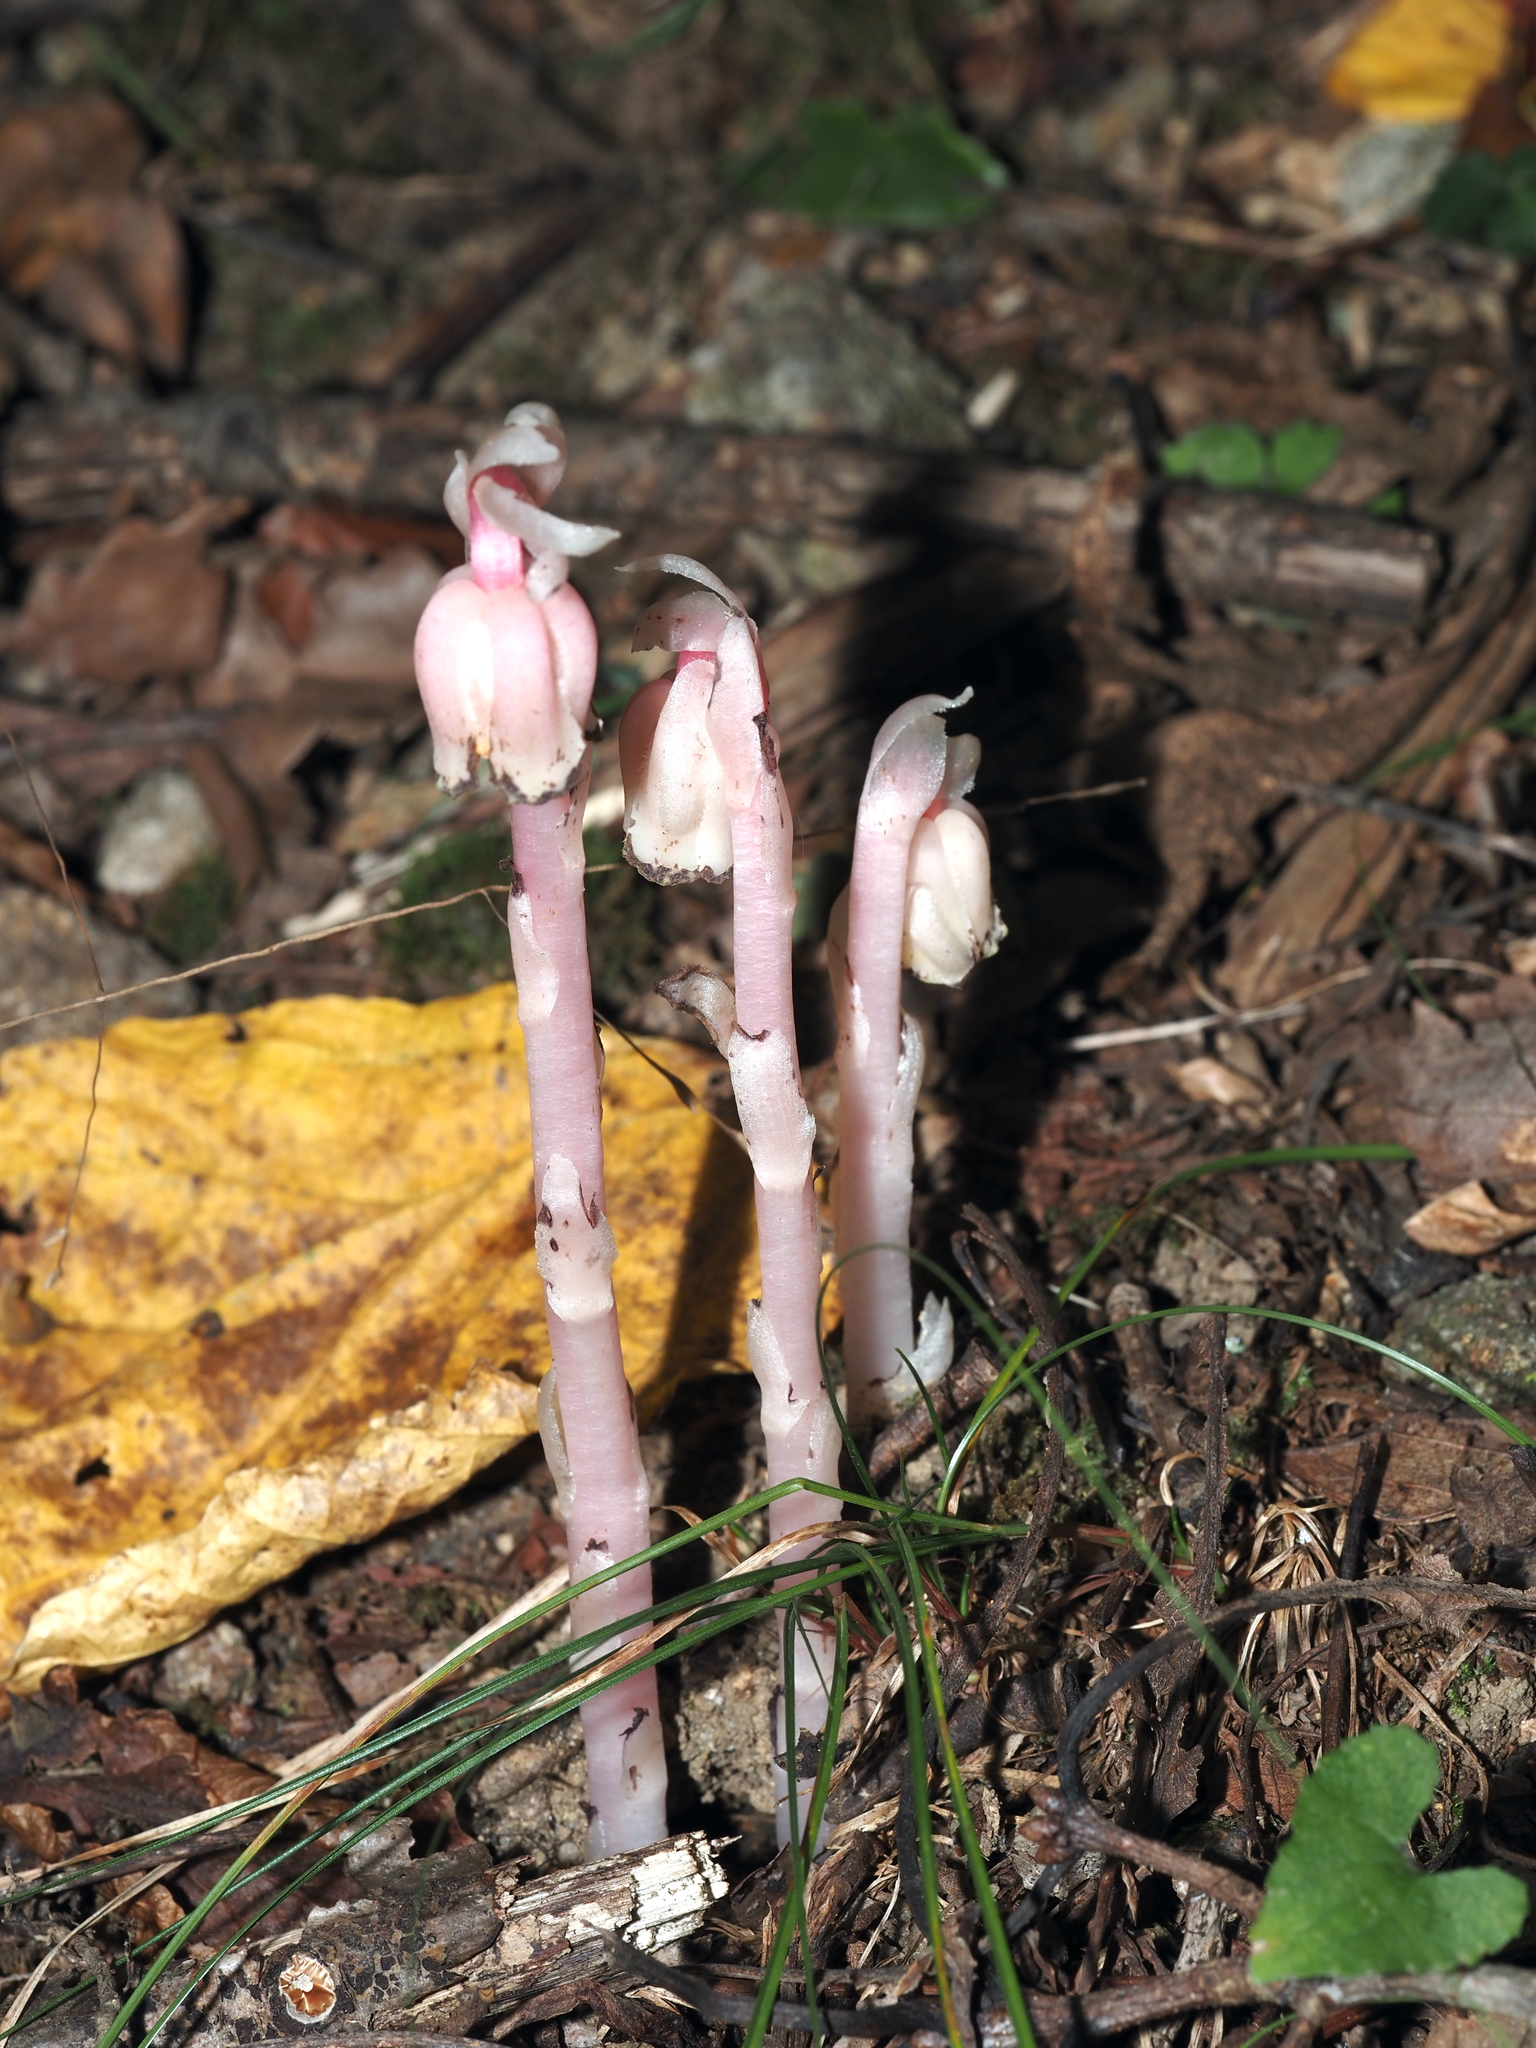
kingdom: Plantae
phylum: Tracheophyta
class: Magnoliopsida
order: Ericales
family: Ericaceae
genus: Monotropa
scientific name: Monotropa uniflora
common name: Convulsion root
